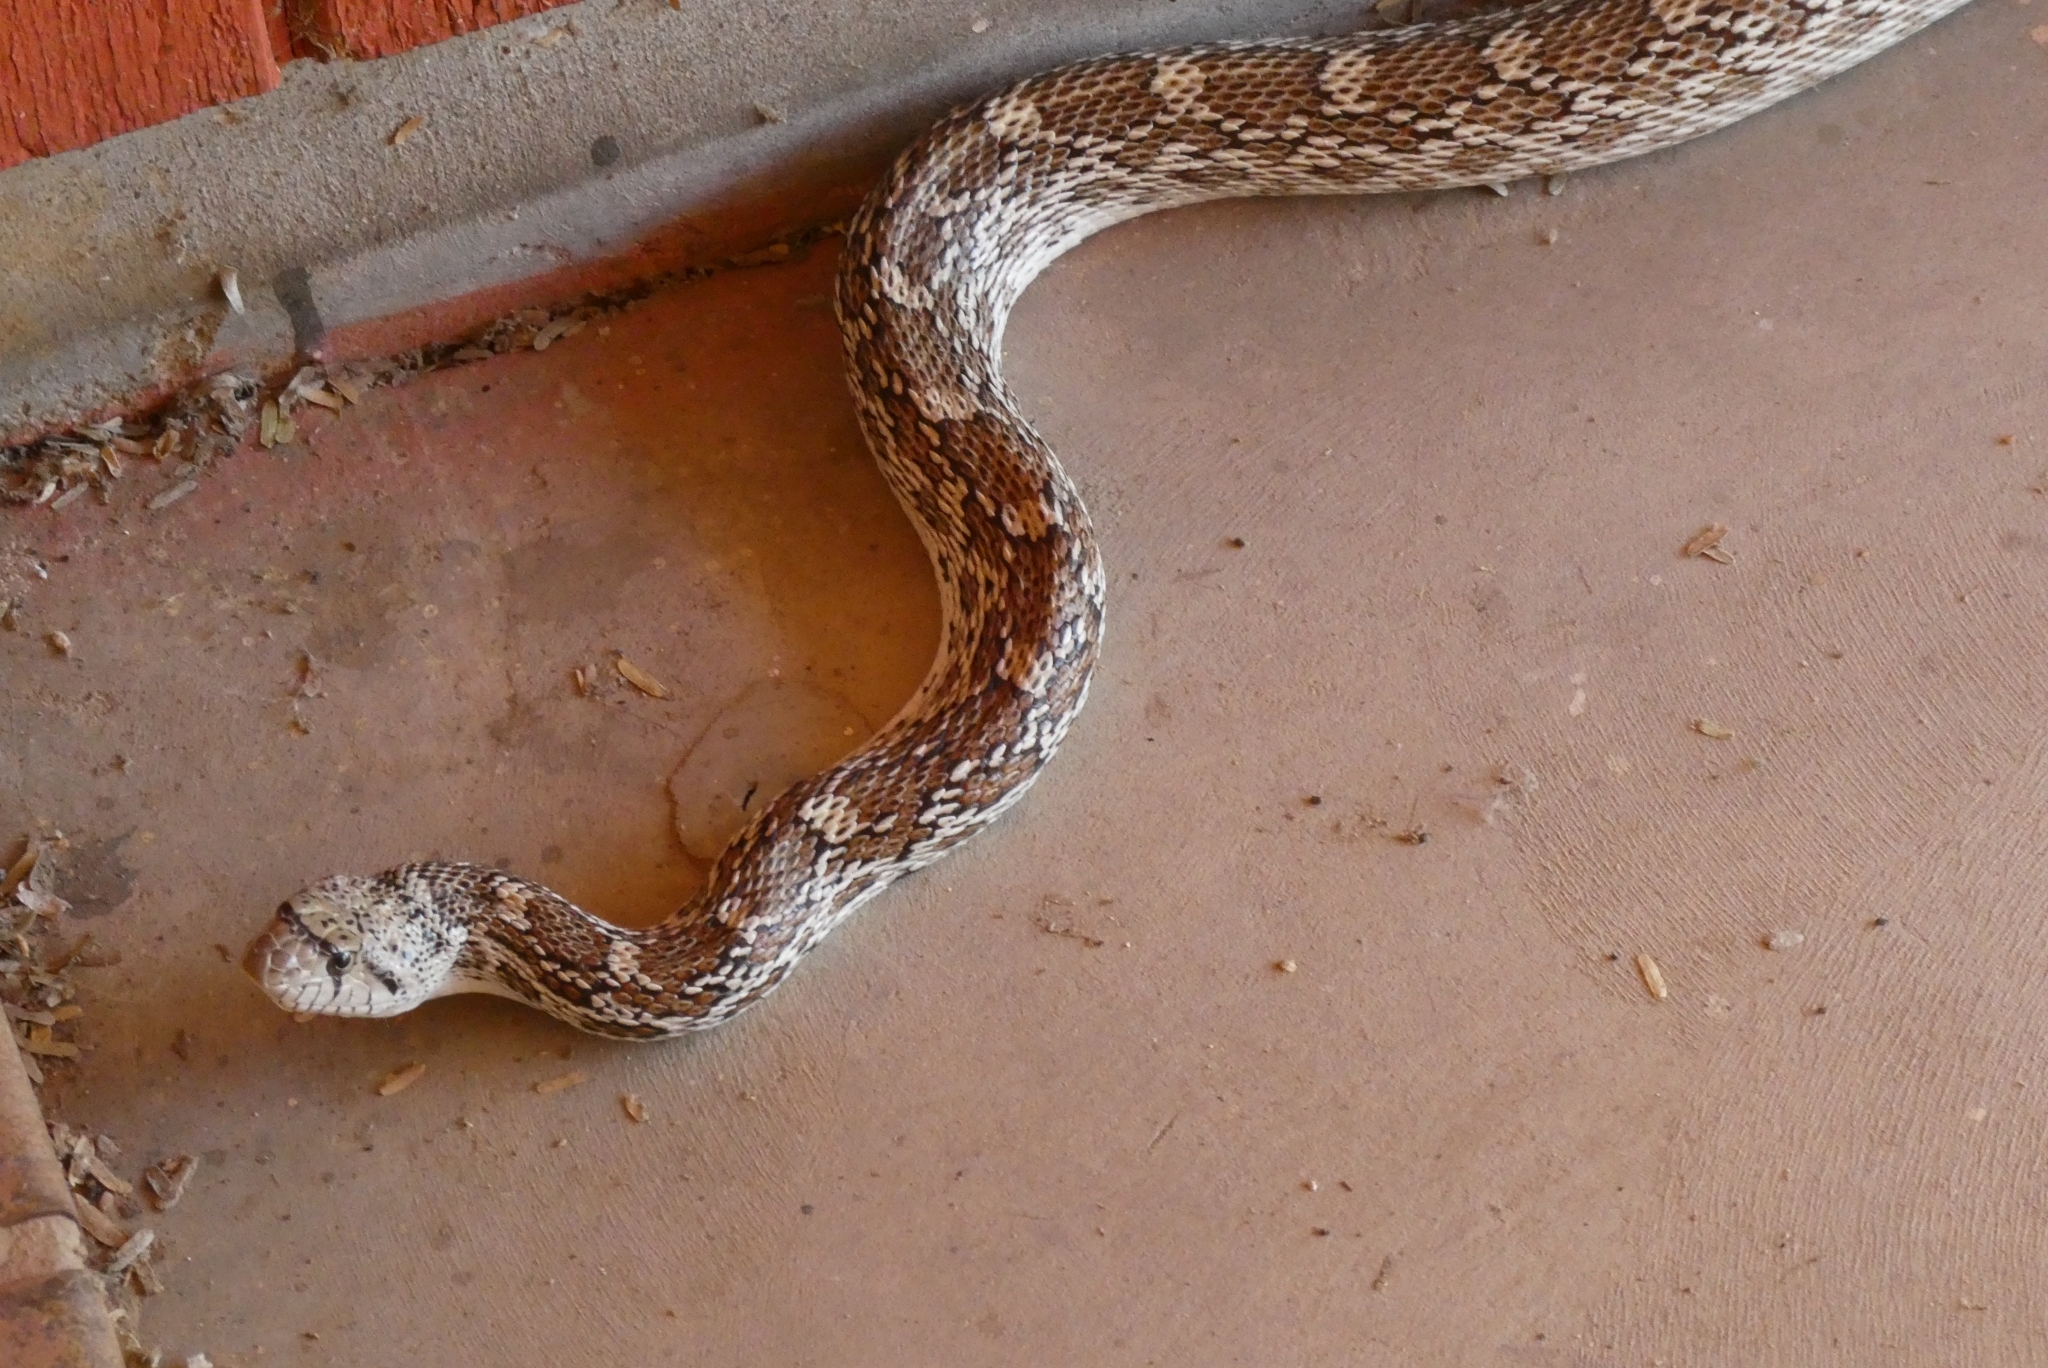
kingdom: Animalia
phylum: Chordata
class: Squamata
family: Colubridae
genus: Pituophis
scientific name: Pituophis catenifer
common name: Gopher snake
